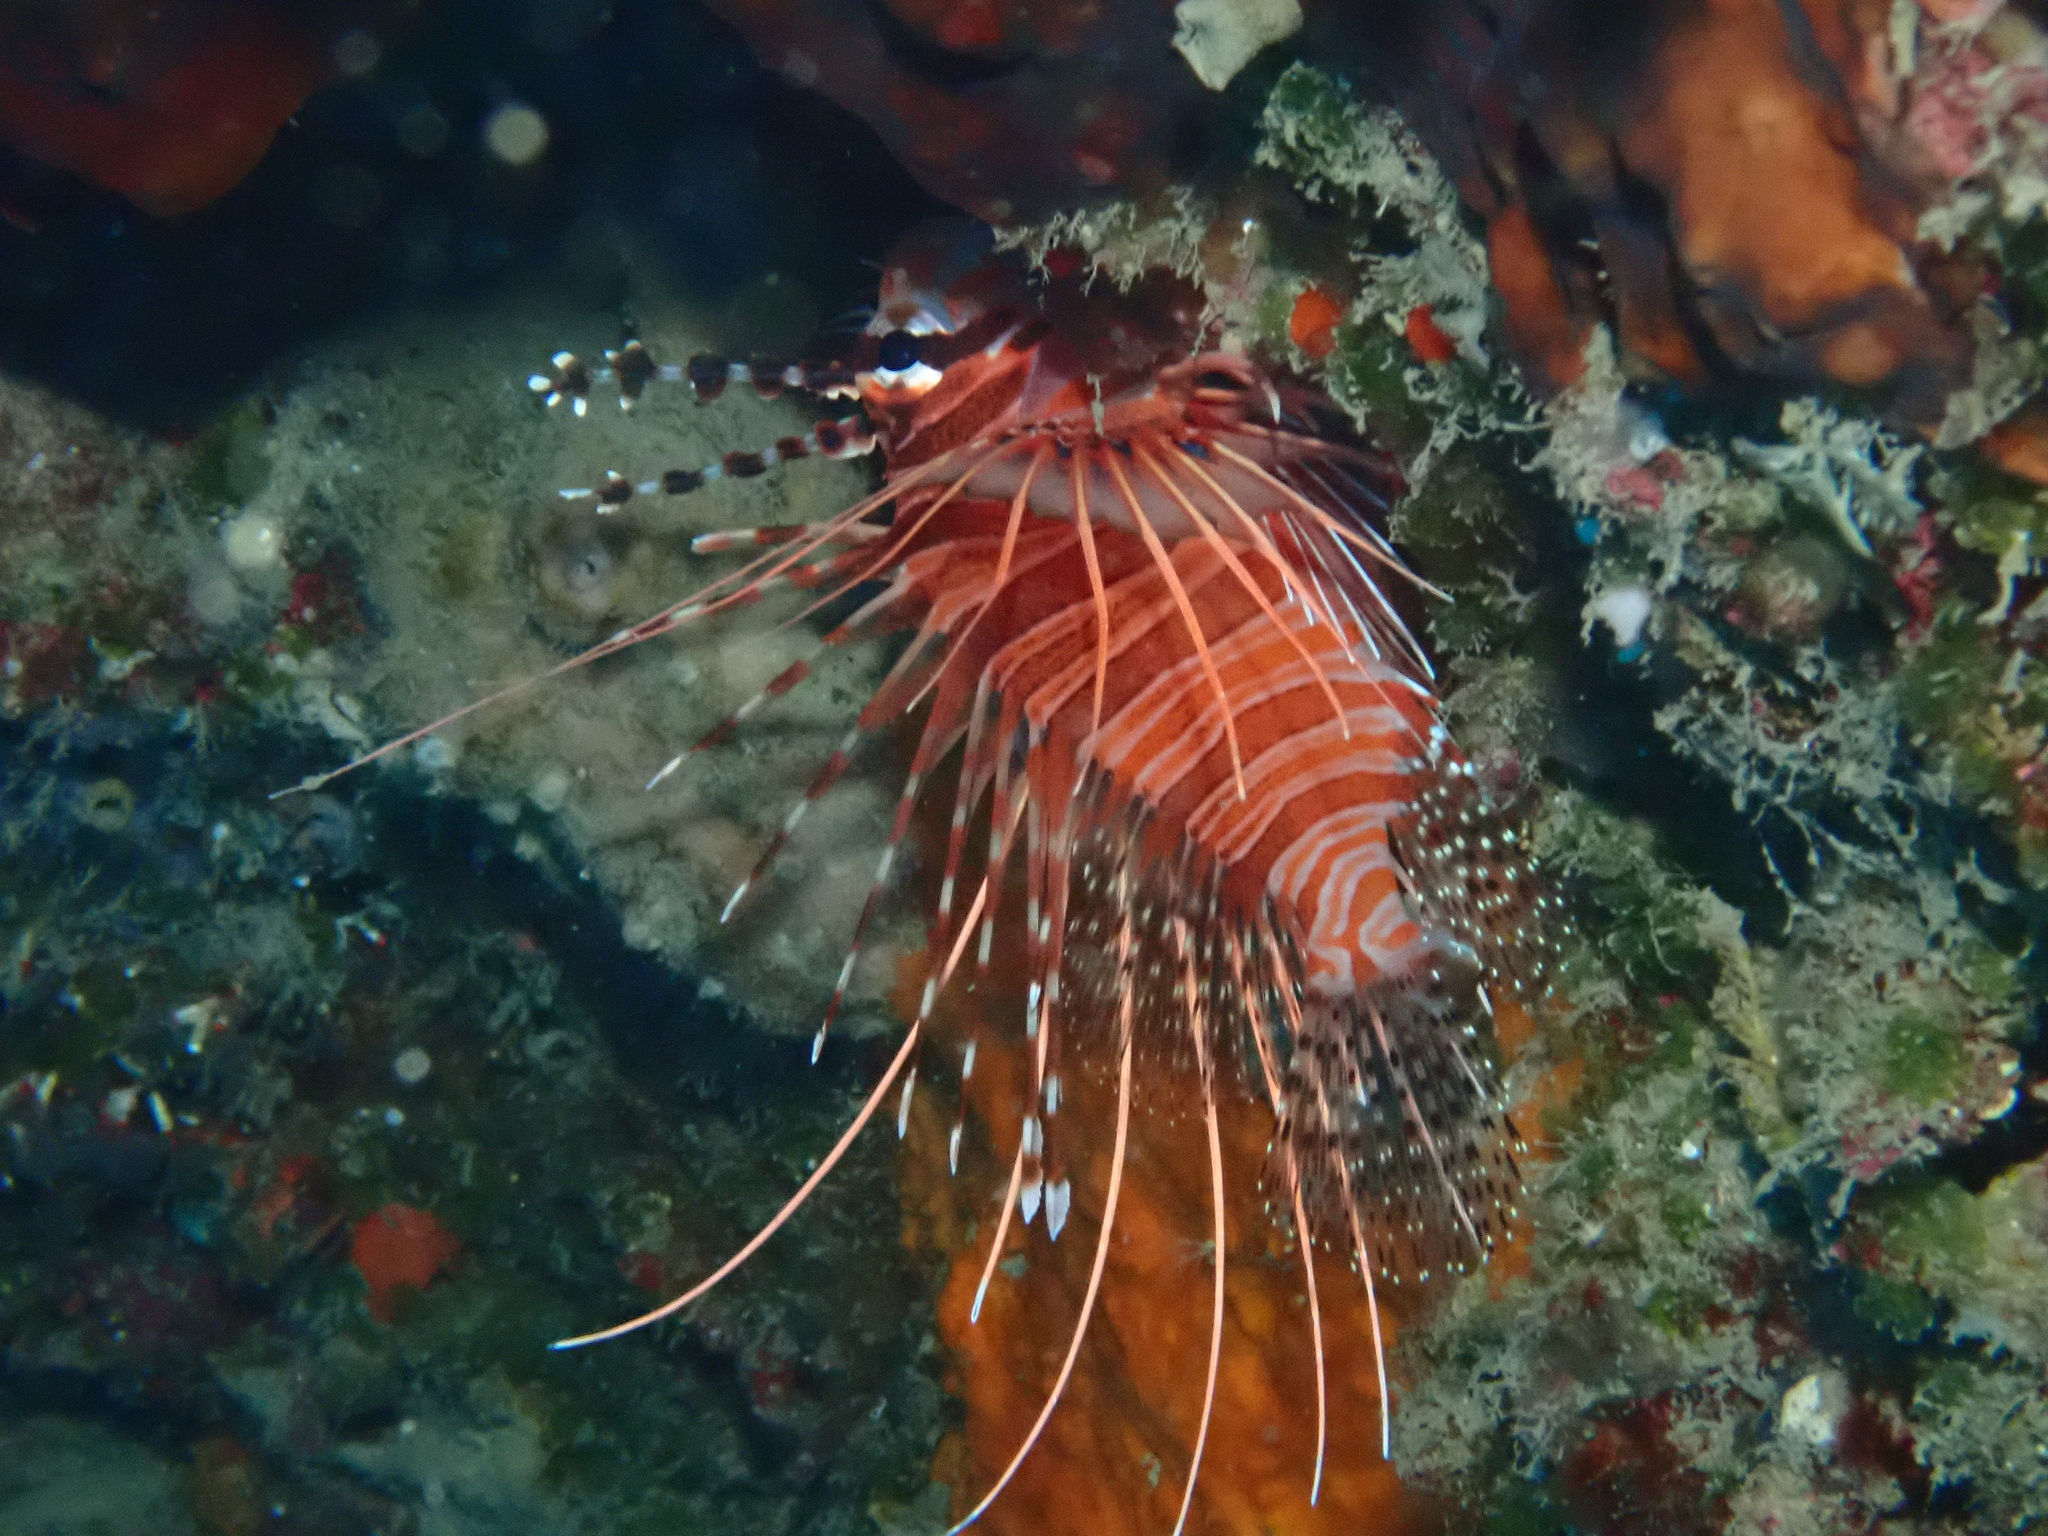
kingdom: Animalia
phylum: Chordata
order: Scorpaeniformes
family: Scorpaenidae
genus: Pterois
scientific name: Pterois antennata
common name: Spotfin lionfish
